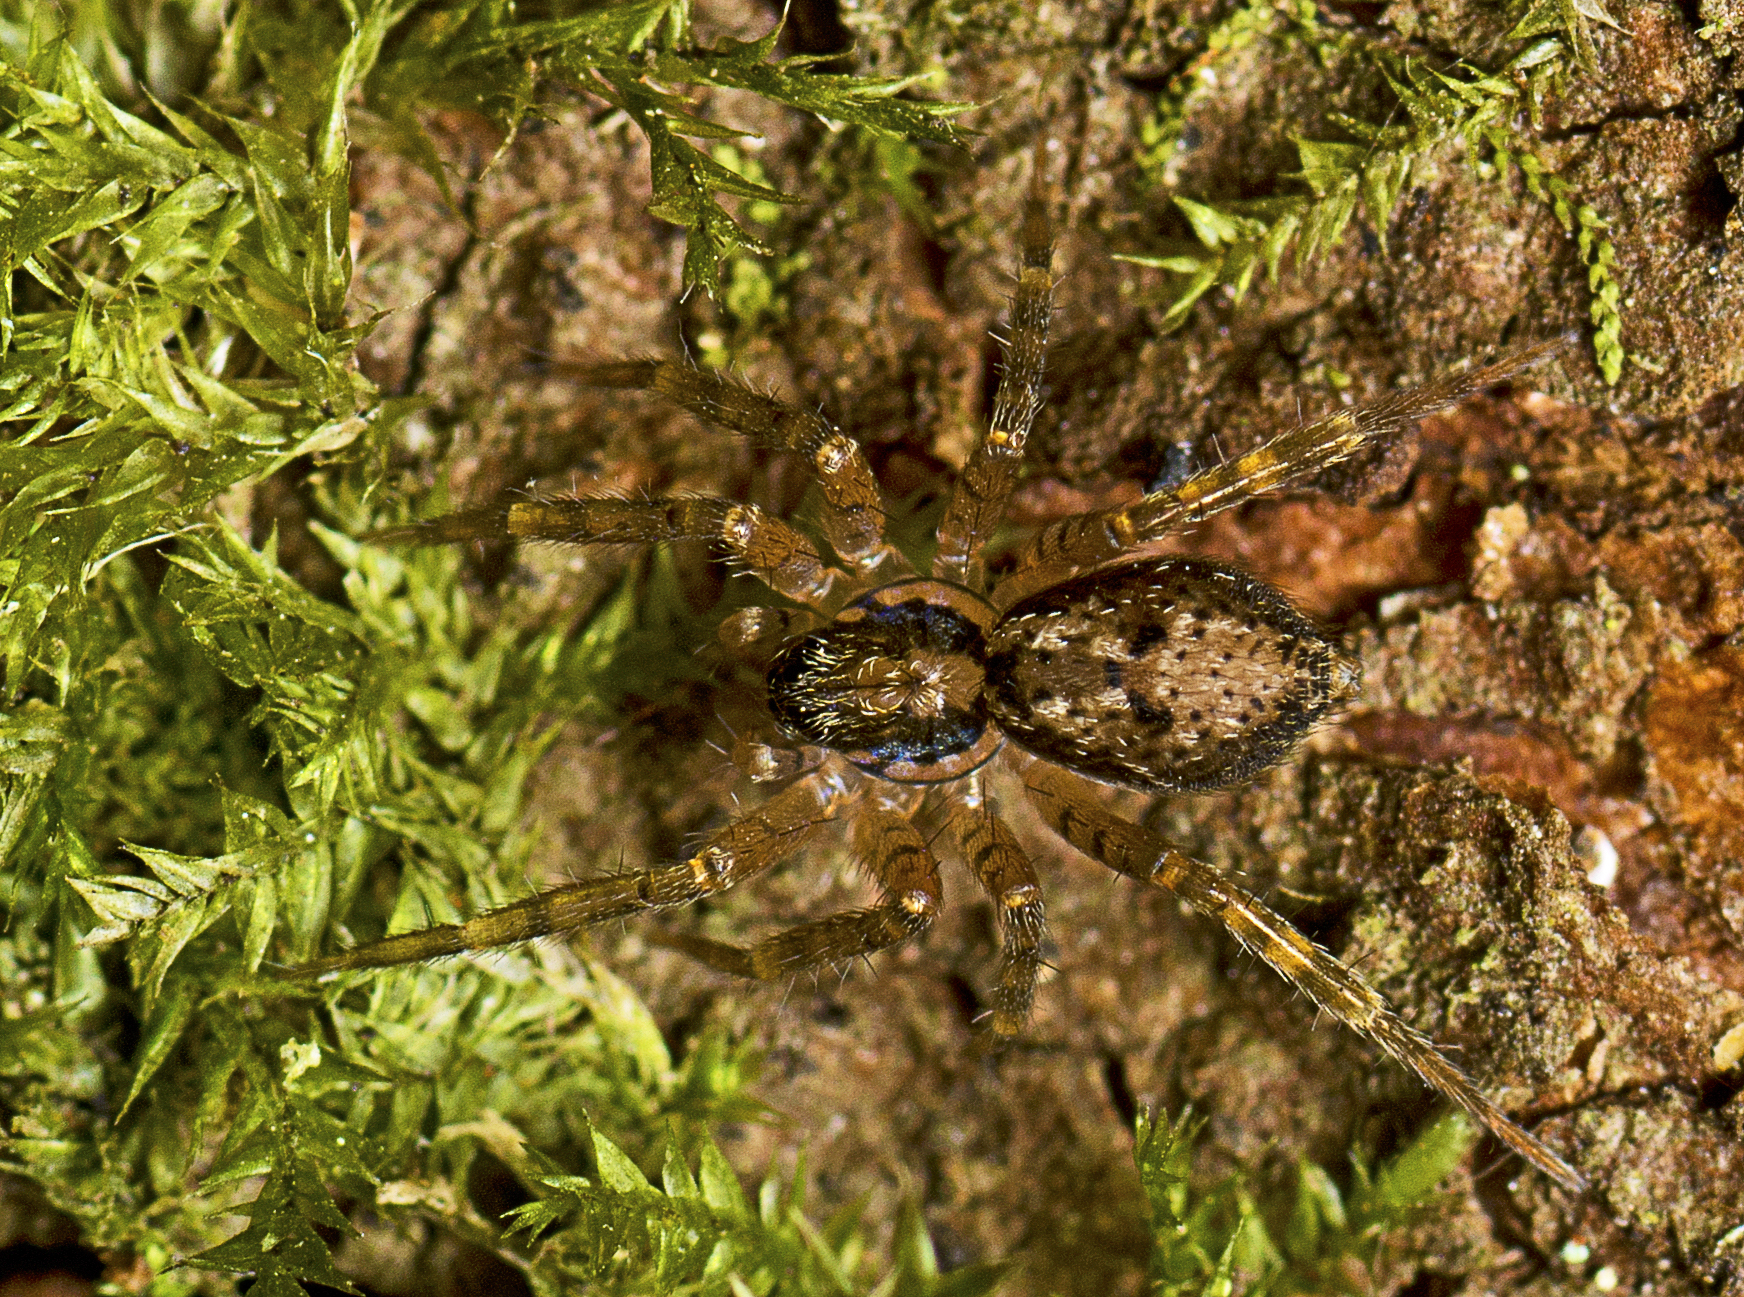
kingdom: Animalia
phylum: Arthropoda
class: Arachnida
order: Araneae
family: Toxopidae
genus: Toxopsoides
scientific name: Toxopsoides erici
